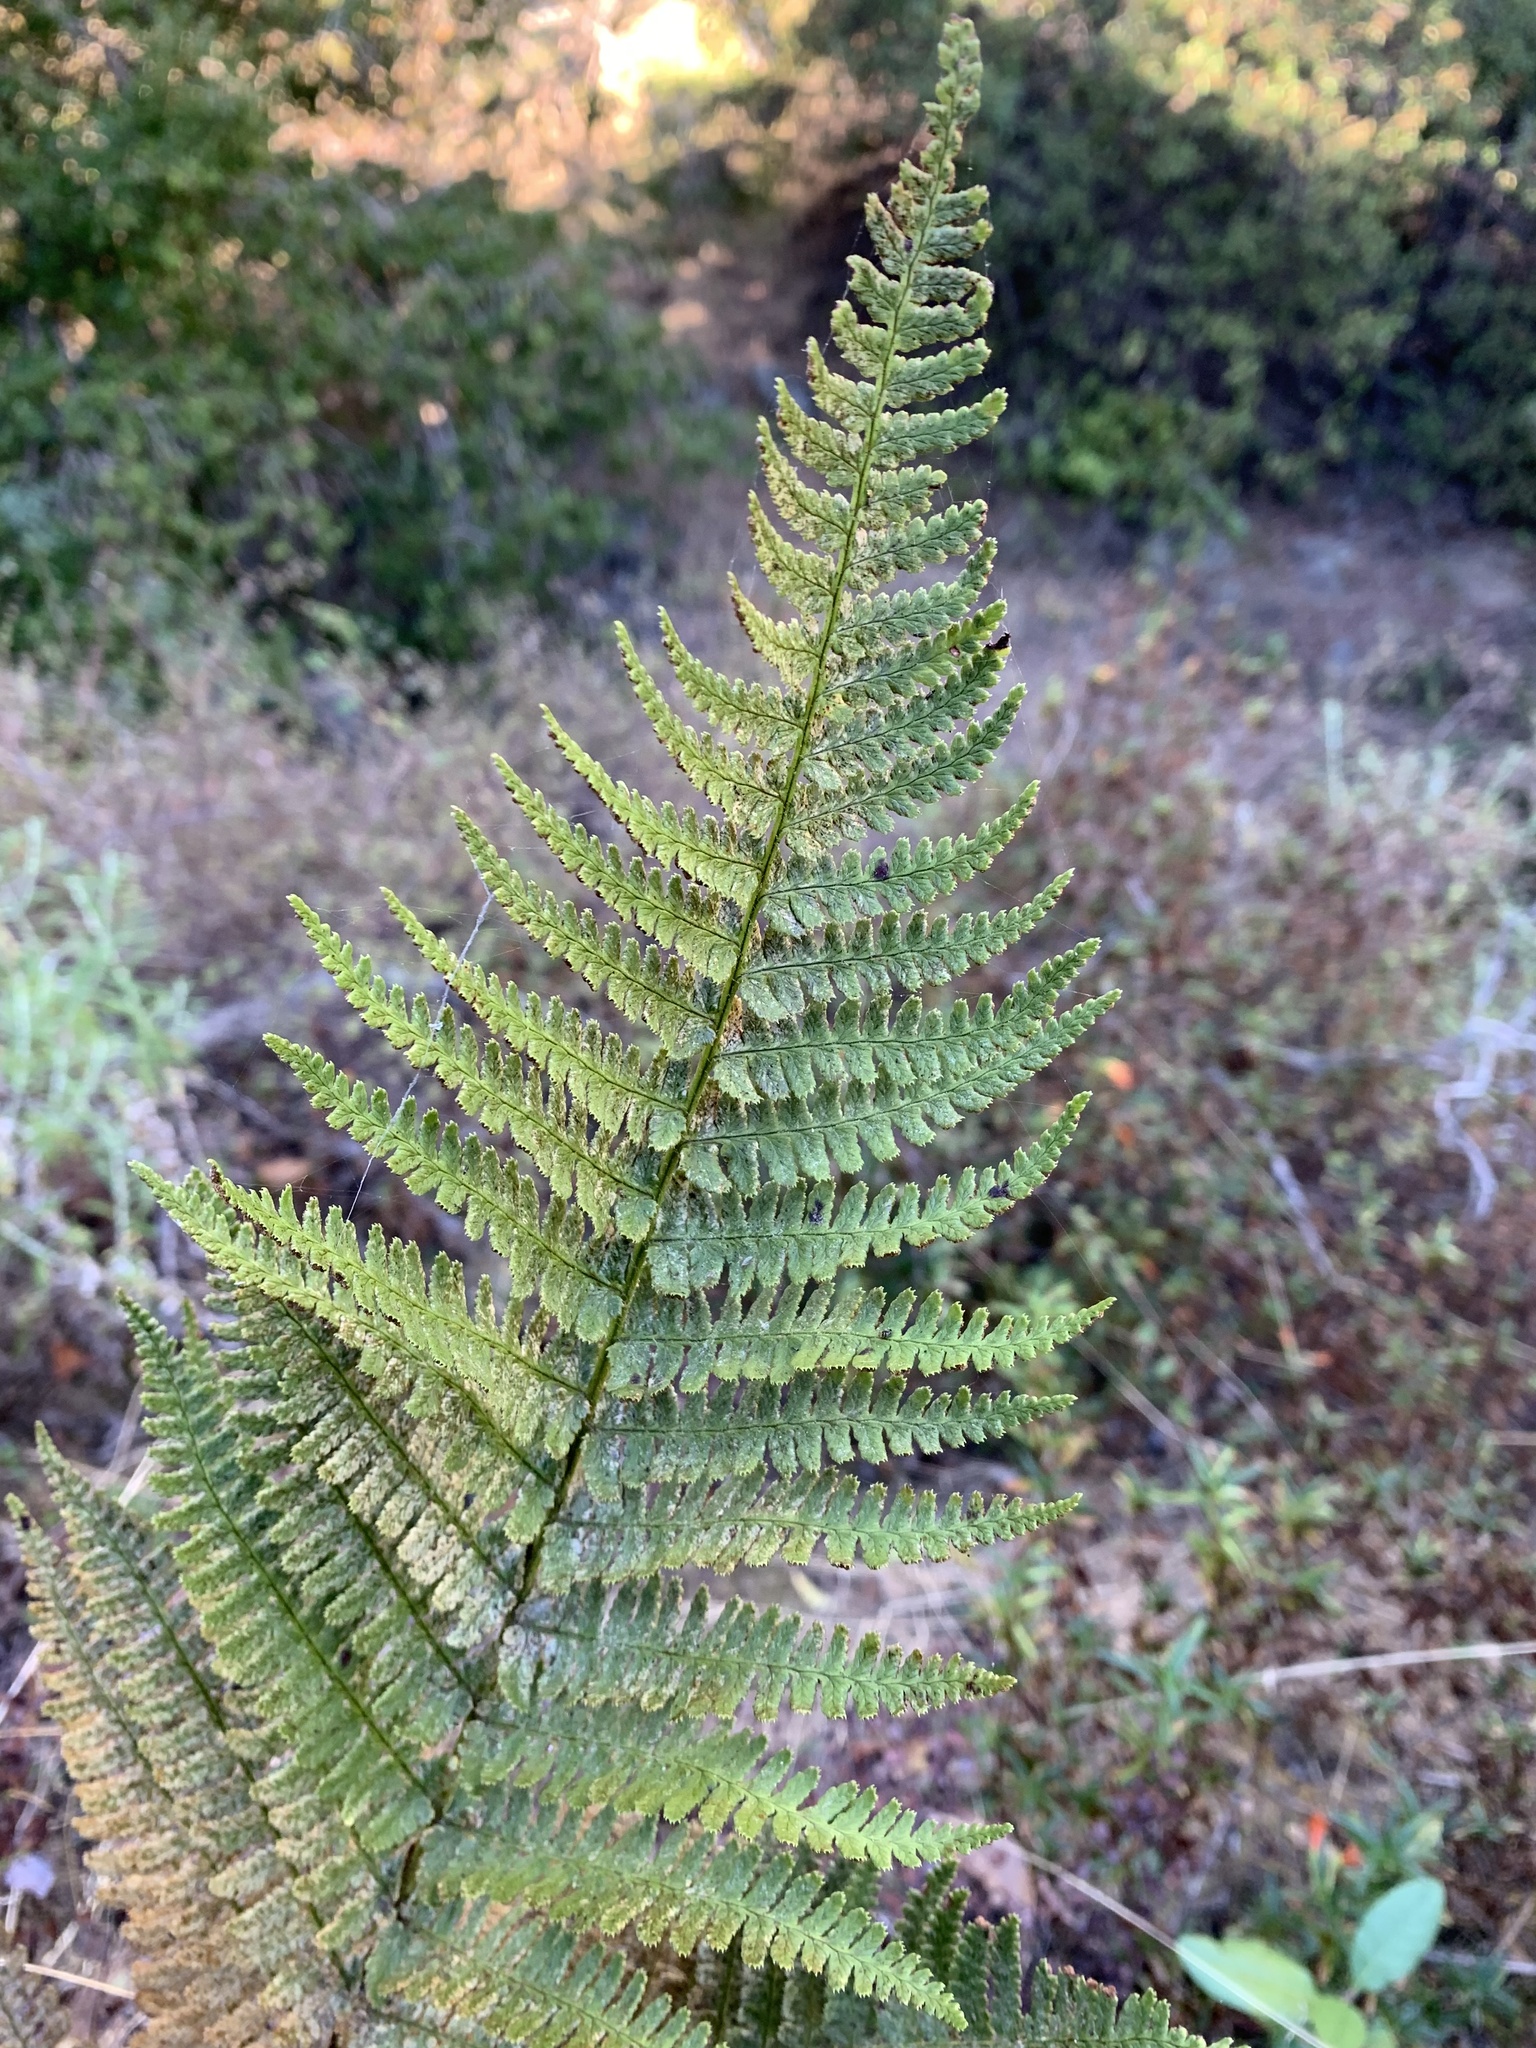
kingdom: Plantae
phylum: Tracheophyta
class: Polypodiopsida
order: Polypodiales
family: Dryopteridaceae
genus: Dryopteris
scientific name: Dryopteris arguta
